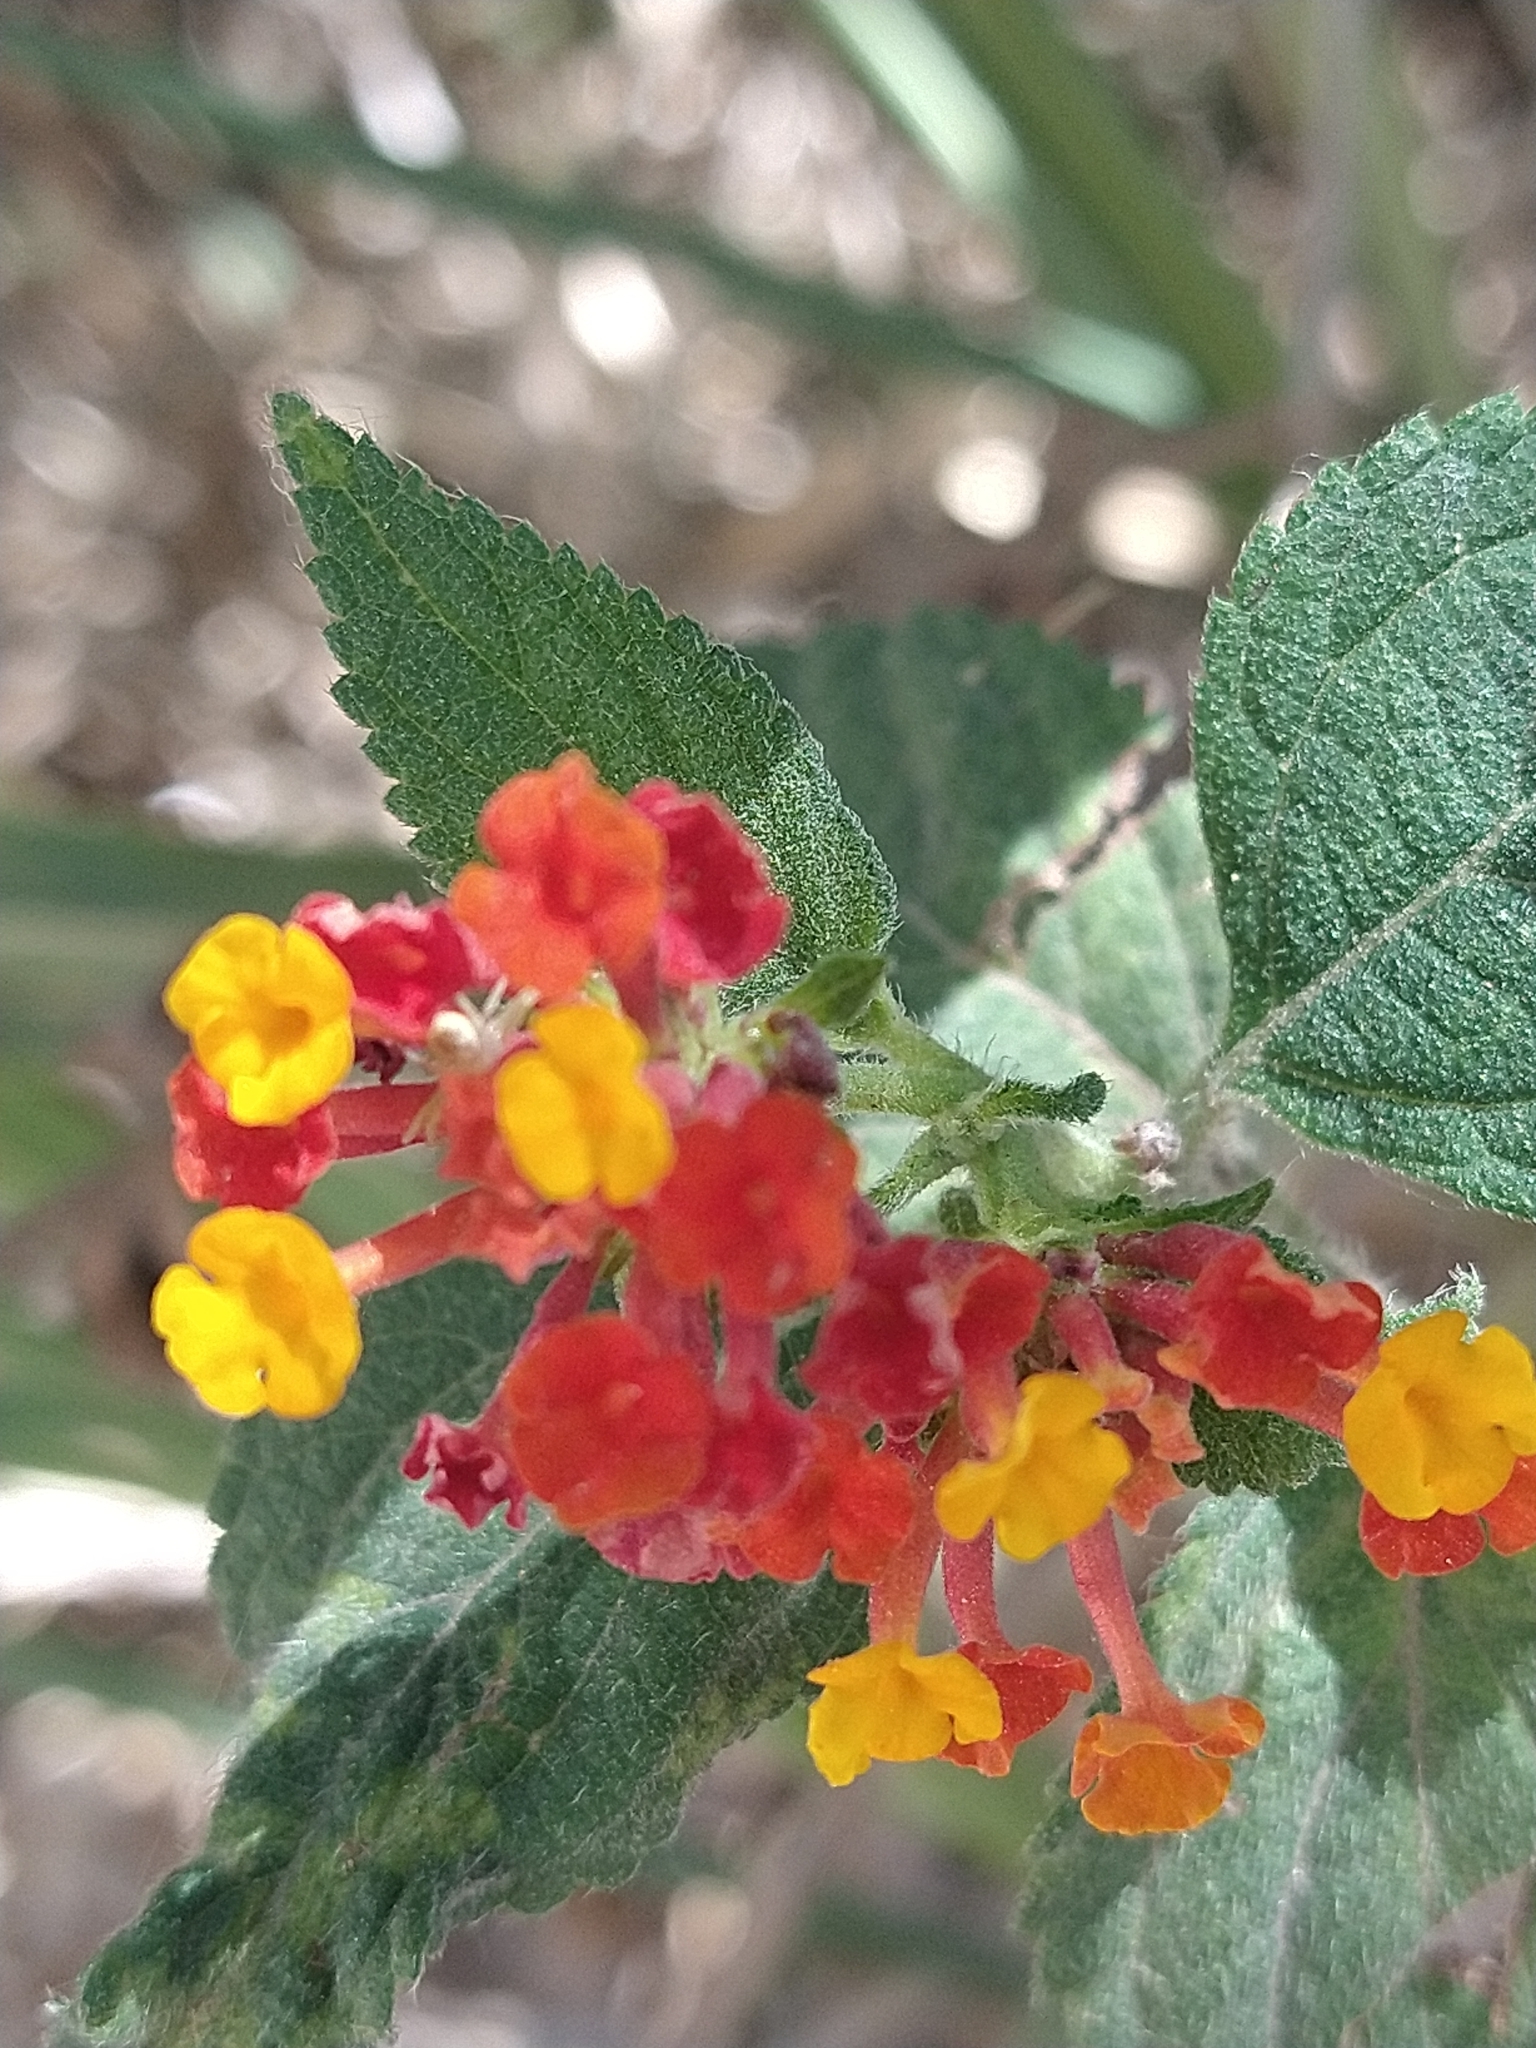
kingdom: Plantae
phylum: Tracheophyta
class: Magnoliopsida
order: Lamiales
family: Verbenaceae
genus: Lantana
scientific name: Lantana camara
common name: Lantana
